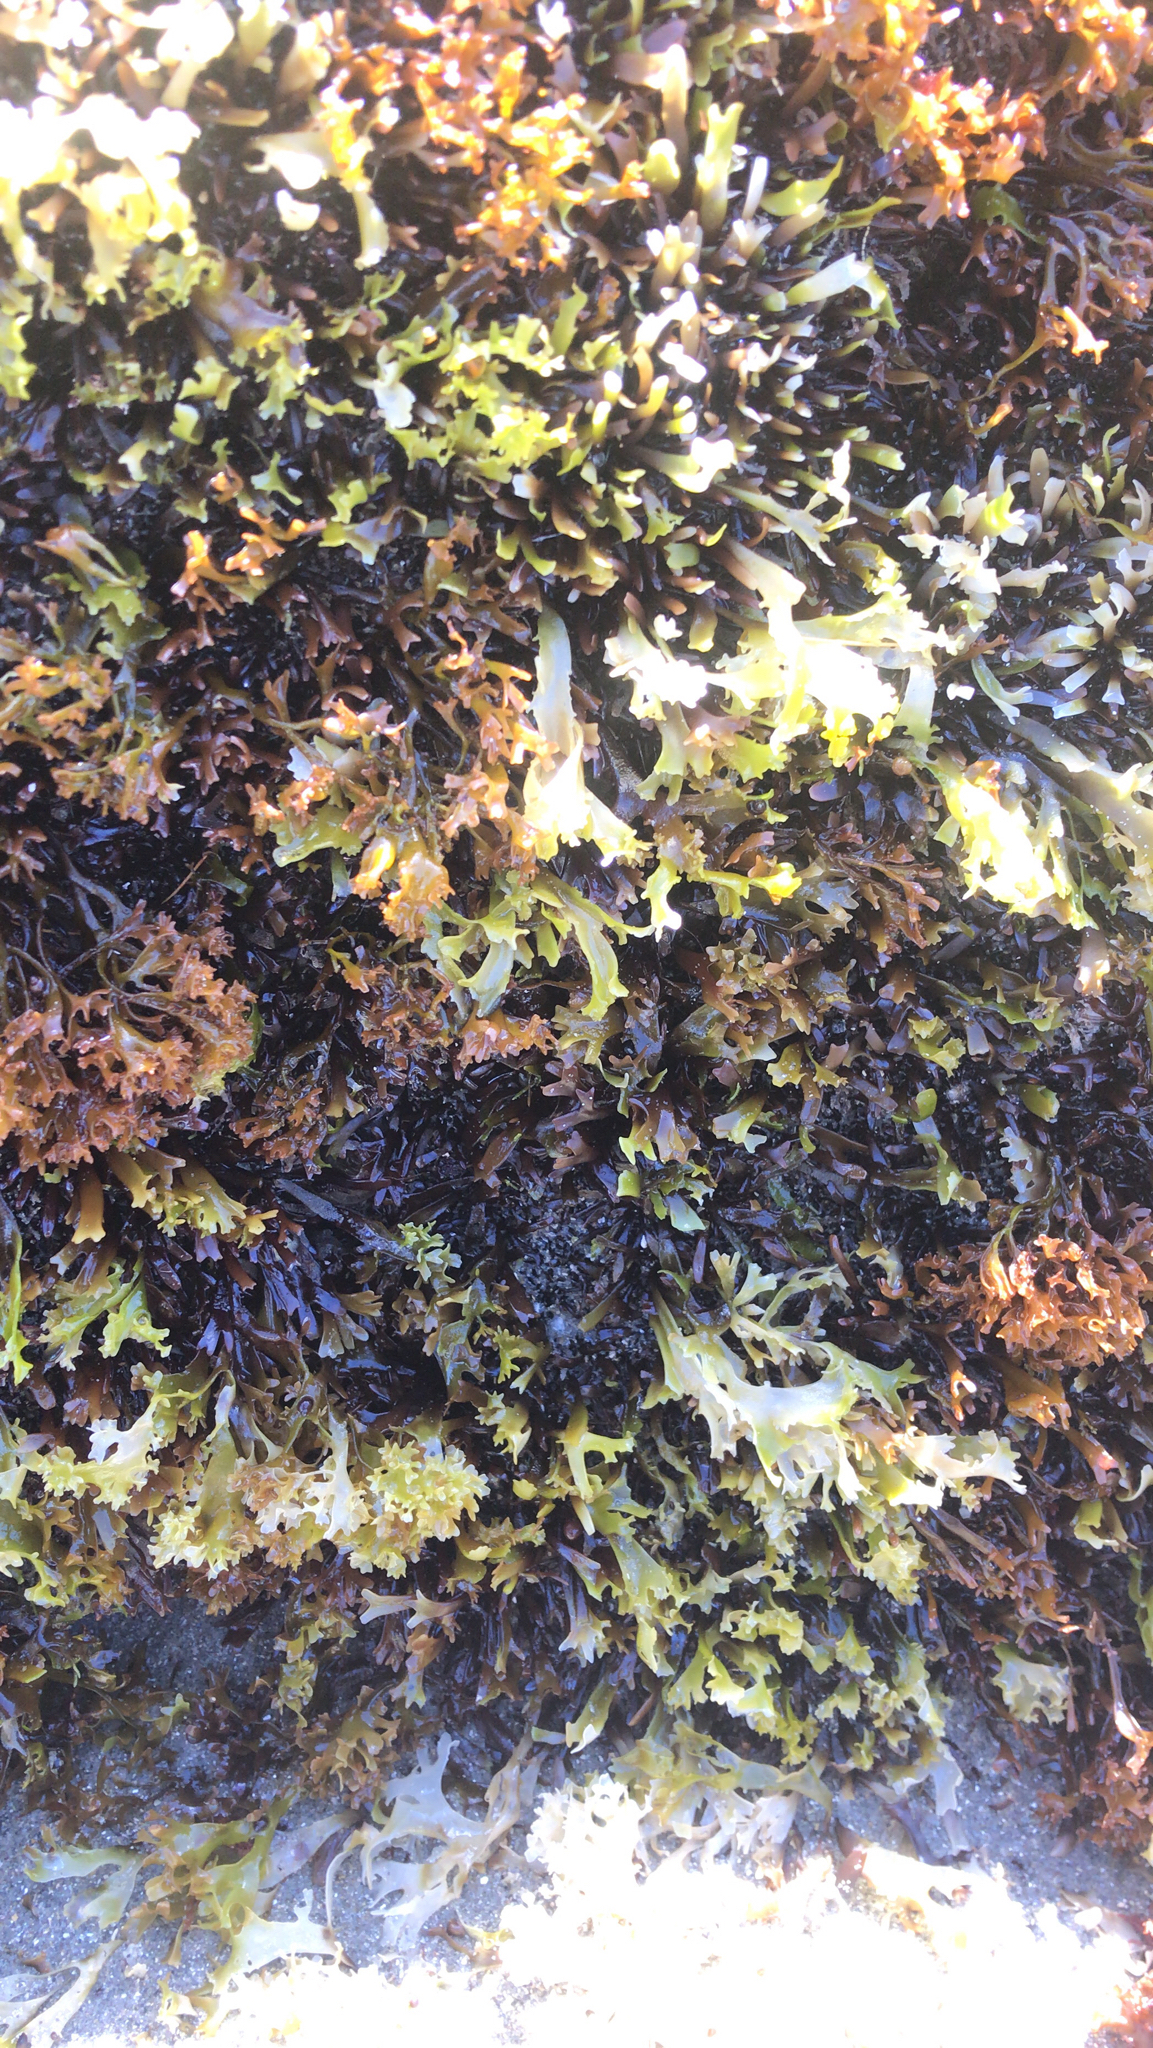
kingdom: Plantae
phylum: Rhodophyta
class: Florideophyceae
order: Gigartinales
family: Gigartinaceae
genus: Chondrus
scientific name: Chondrus crispus
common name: Carrageen
